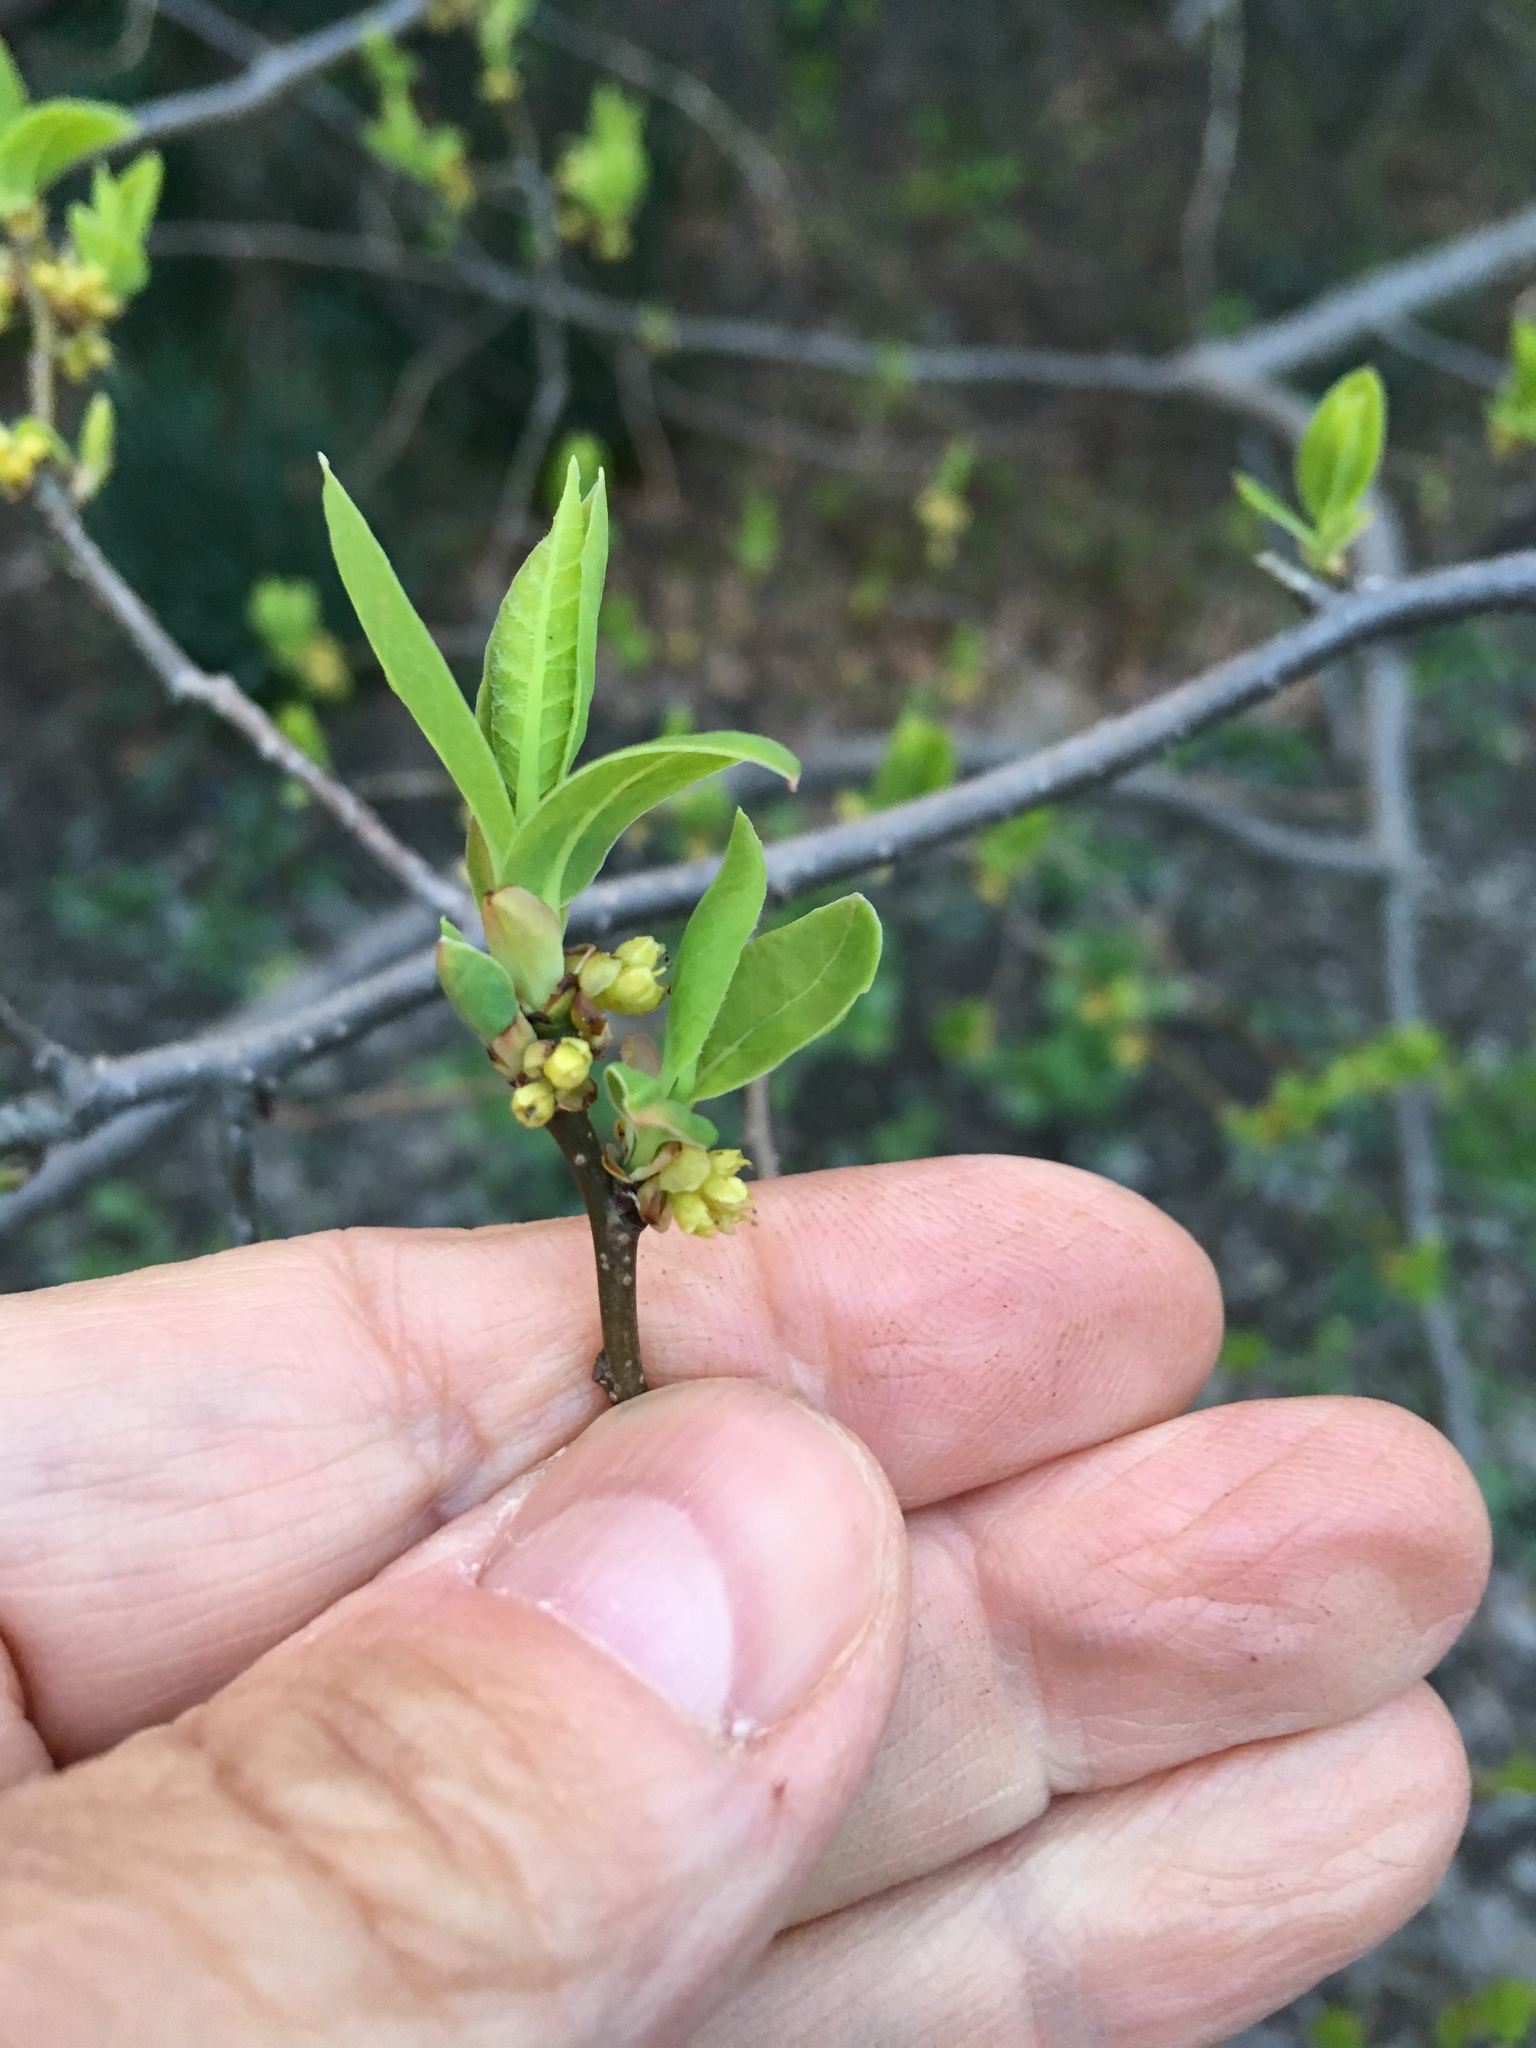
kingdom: Plantae
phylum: Tracheophyta
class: Magnoliopsida
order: Laurales
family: Lauraceae
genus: Lindera
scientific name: Lindera benzoin
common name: Spicebush
